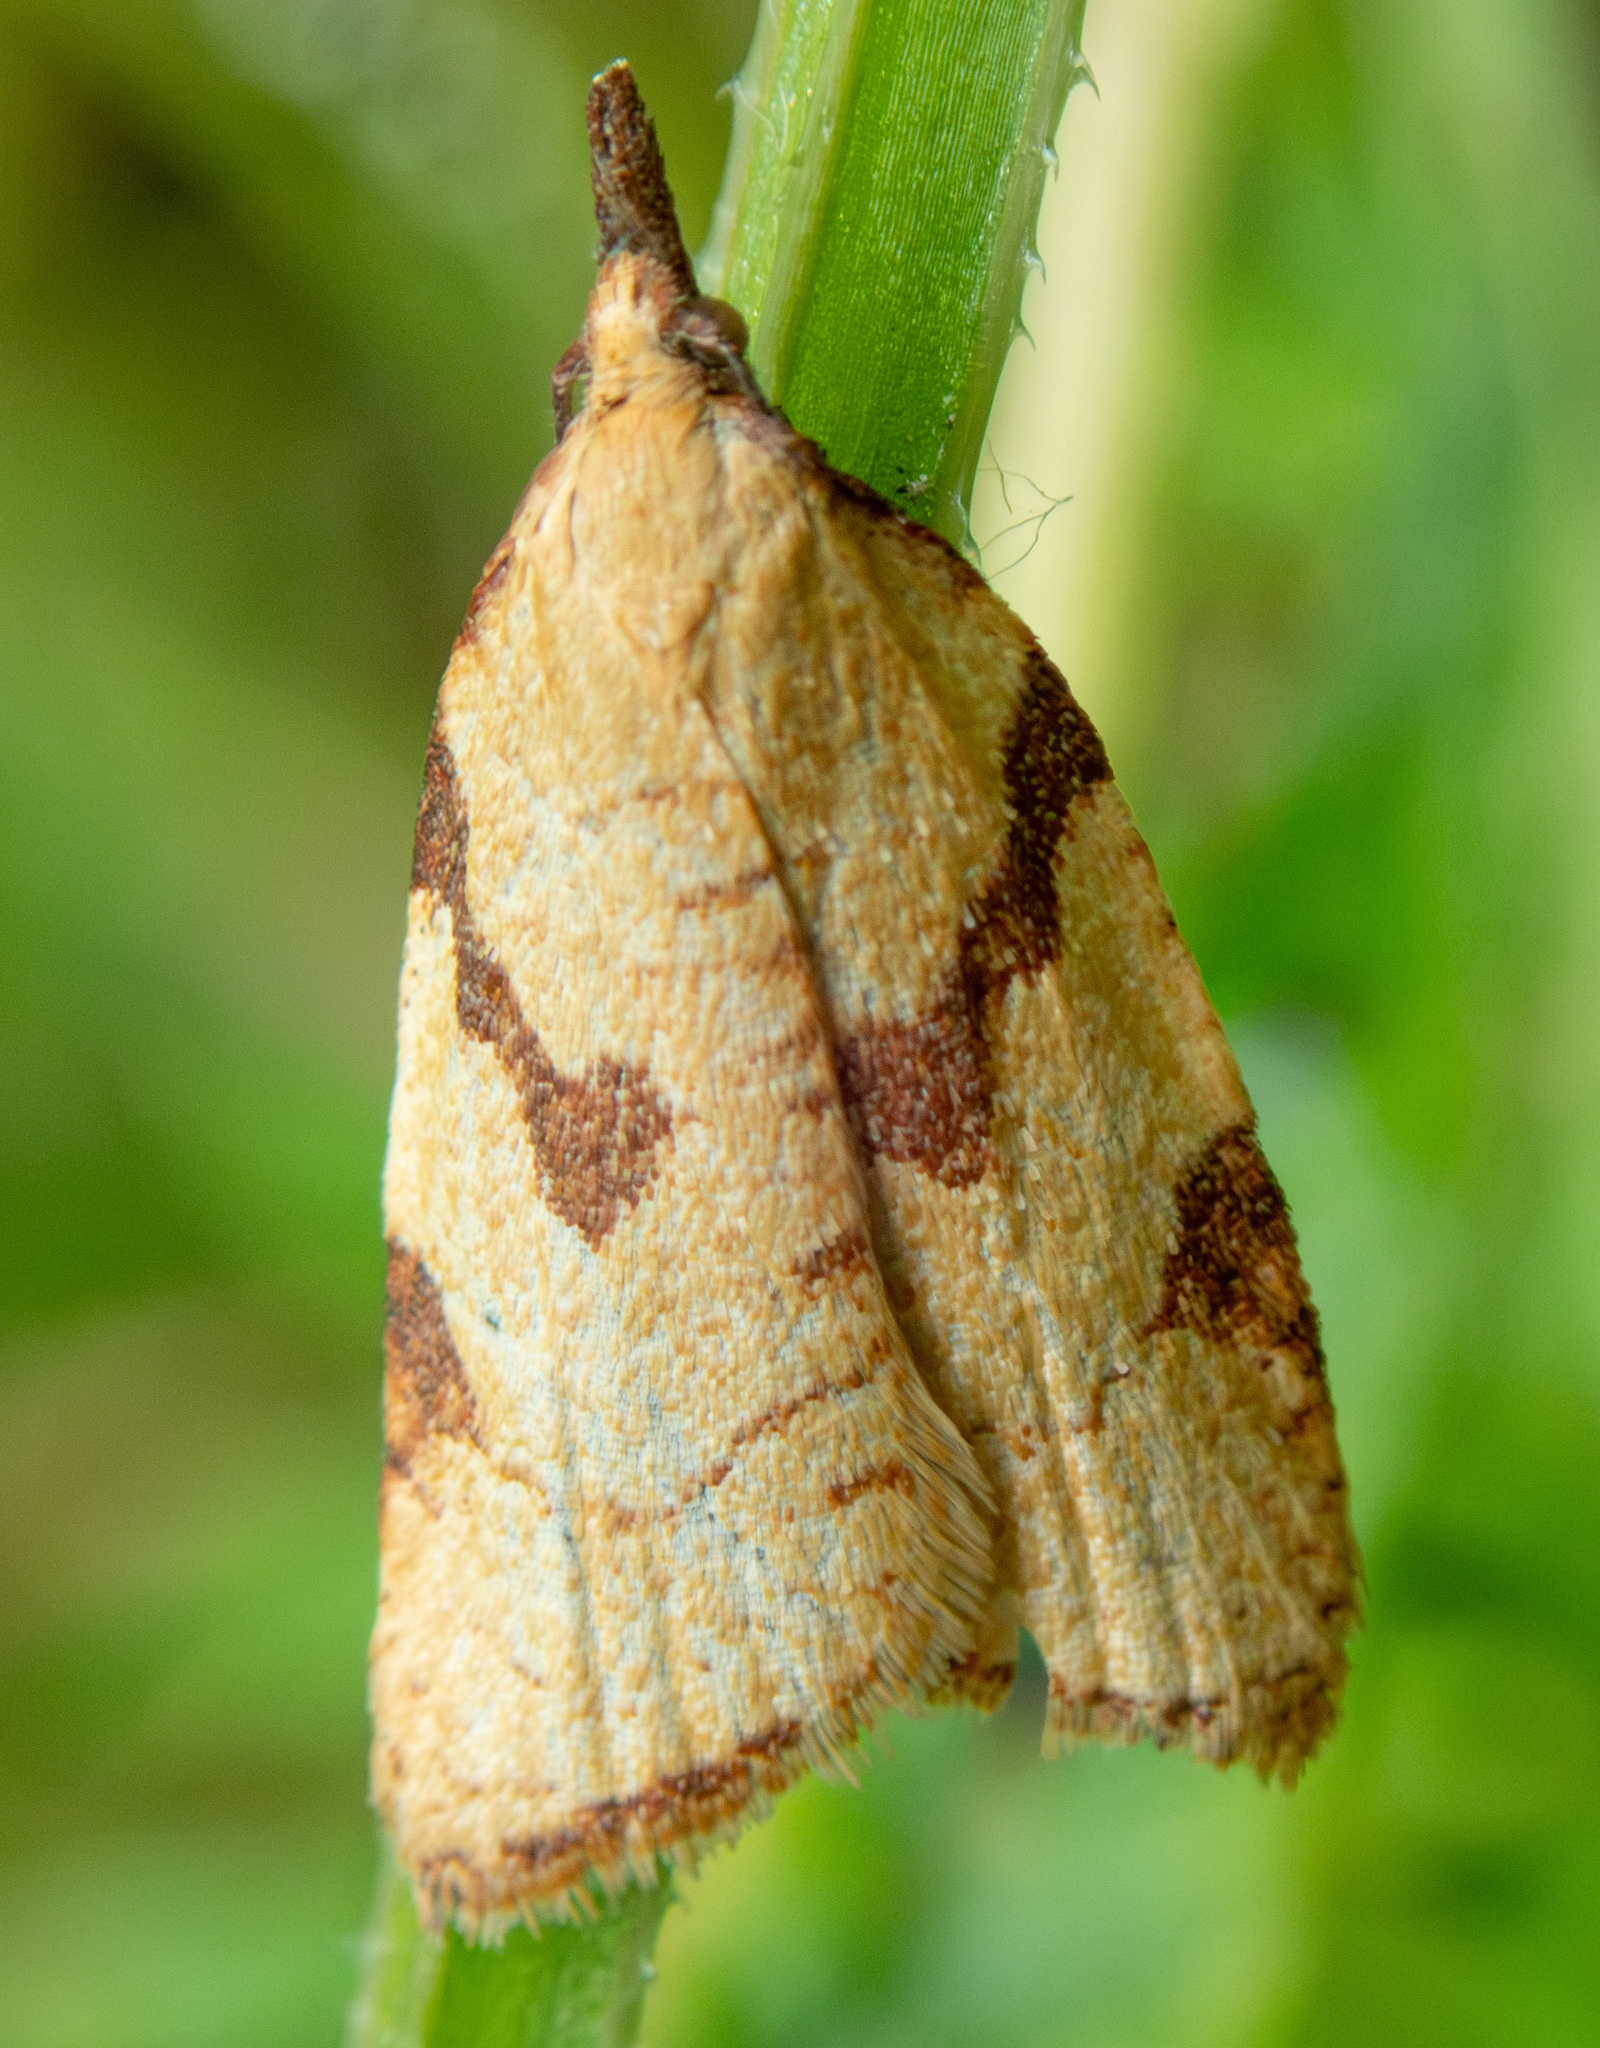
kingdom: Animalia
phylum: Arthropoda
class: Insecta
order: Lepidoptera
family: Tortricidae
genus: Clepsis
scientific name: Clepsis peritana
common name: Garden tortrix
